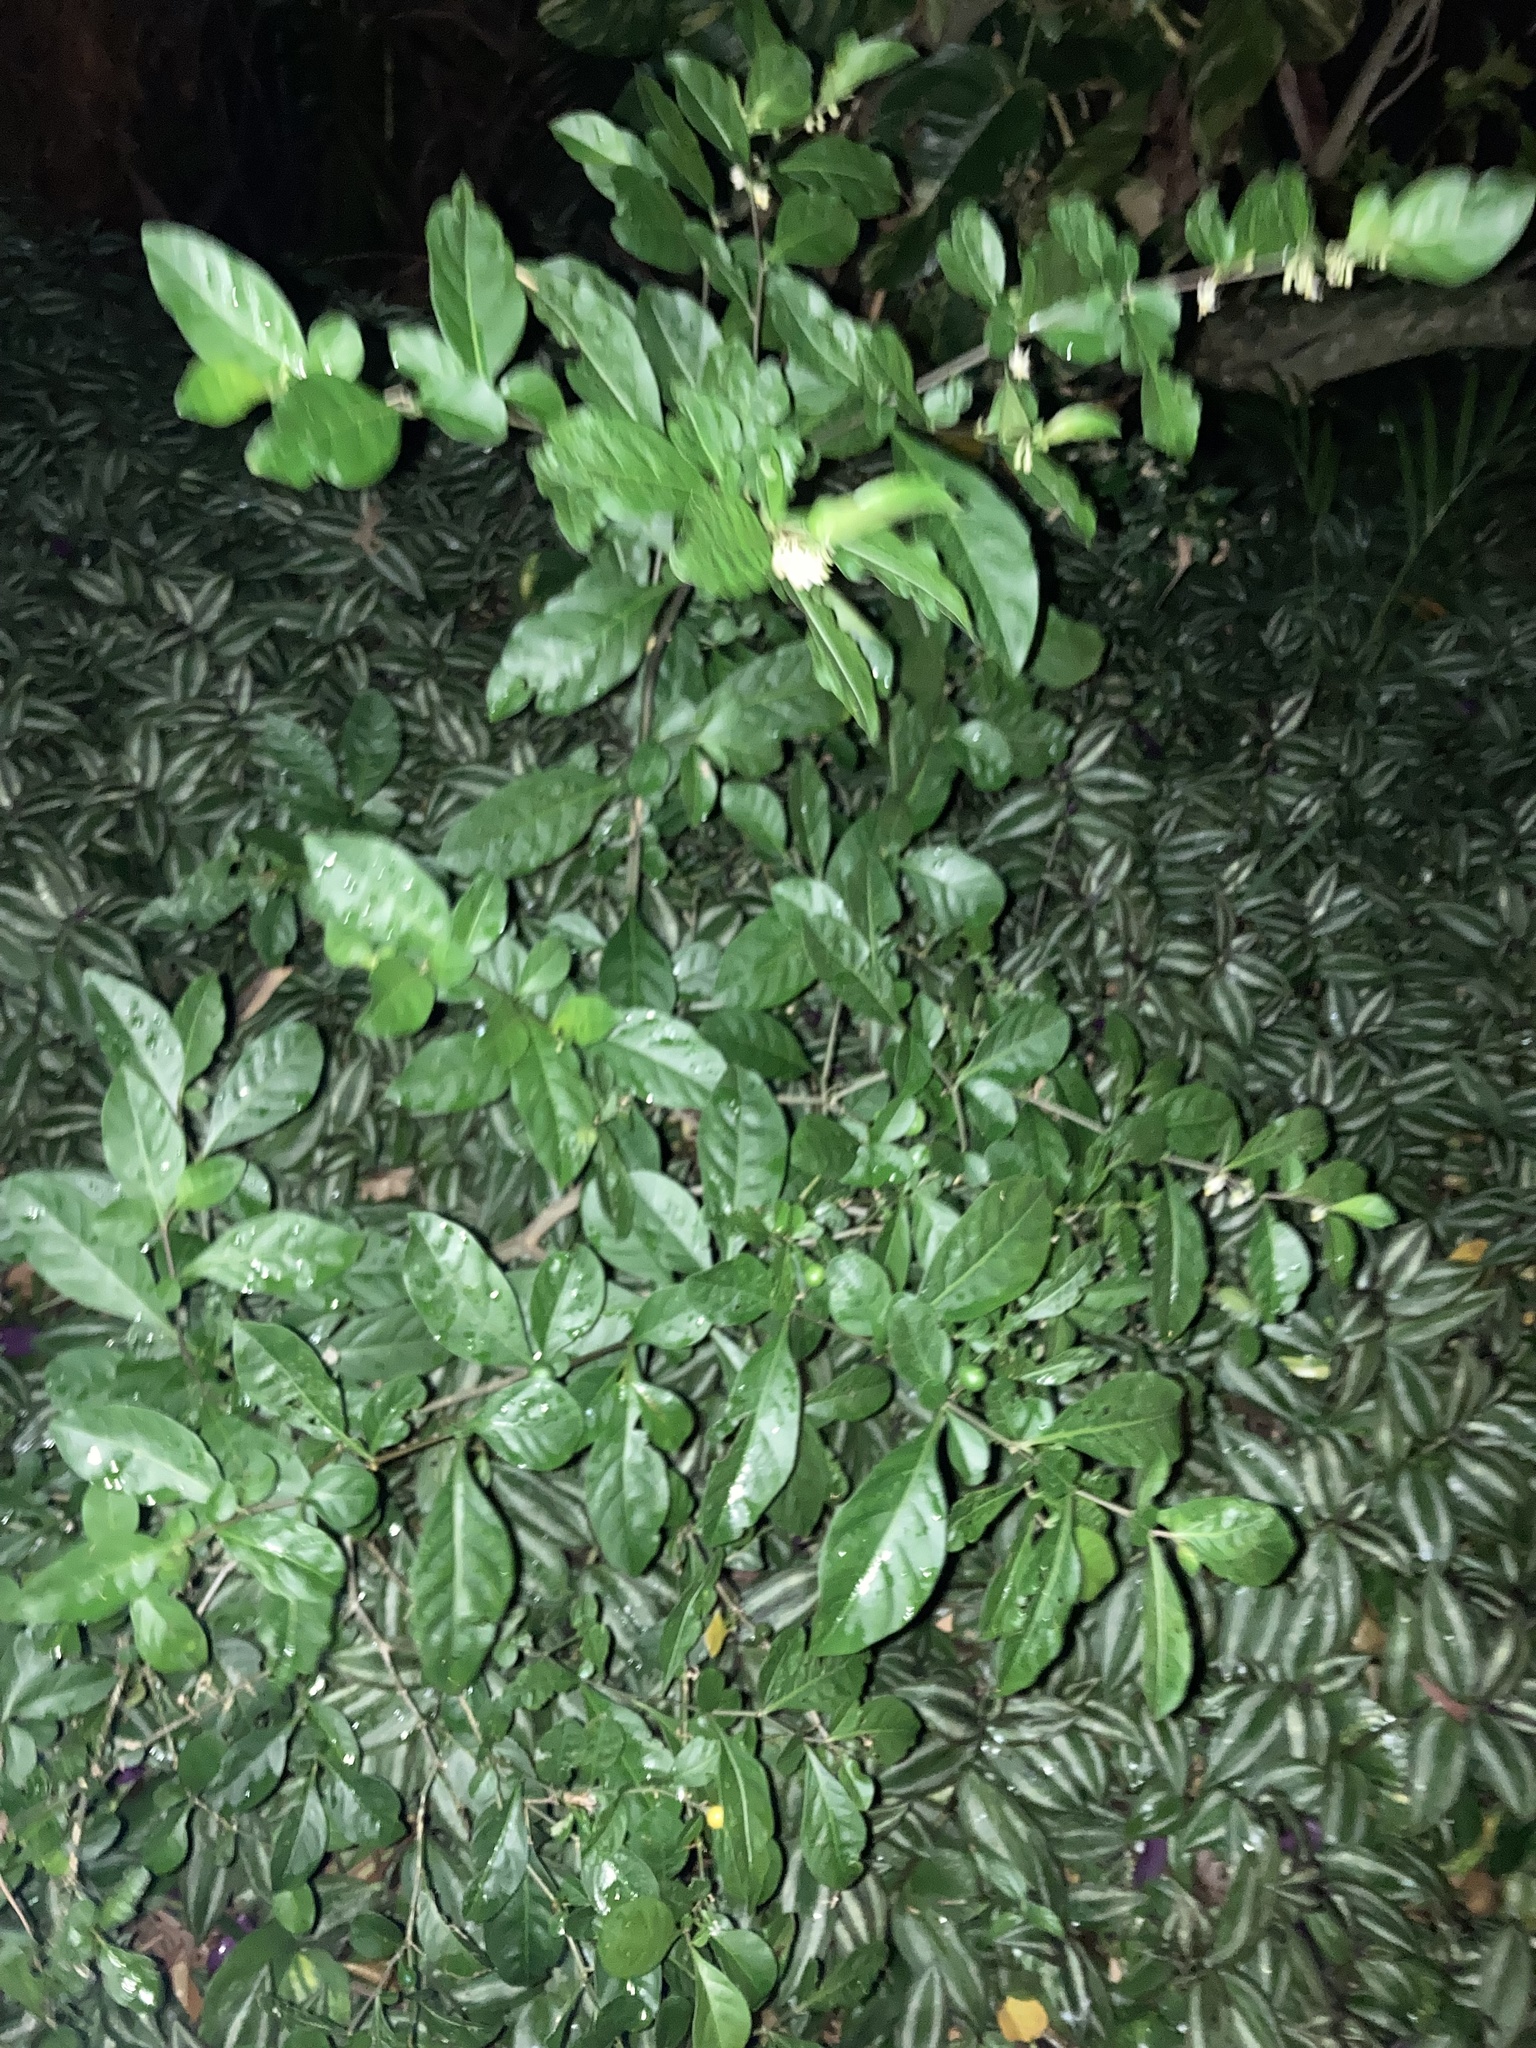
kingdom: Plantae
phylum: Tracheophyta
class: Magnoliopsida
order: Solanales
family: Solanaceae
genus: Solanum
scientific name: Solanum diphyllum
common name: Twoleaf nightshade
